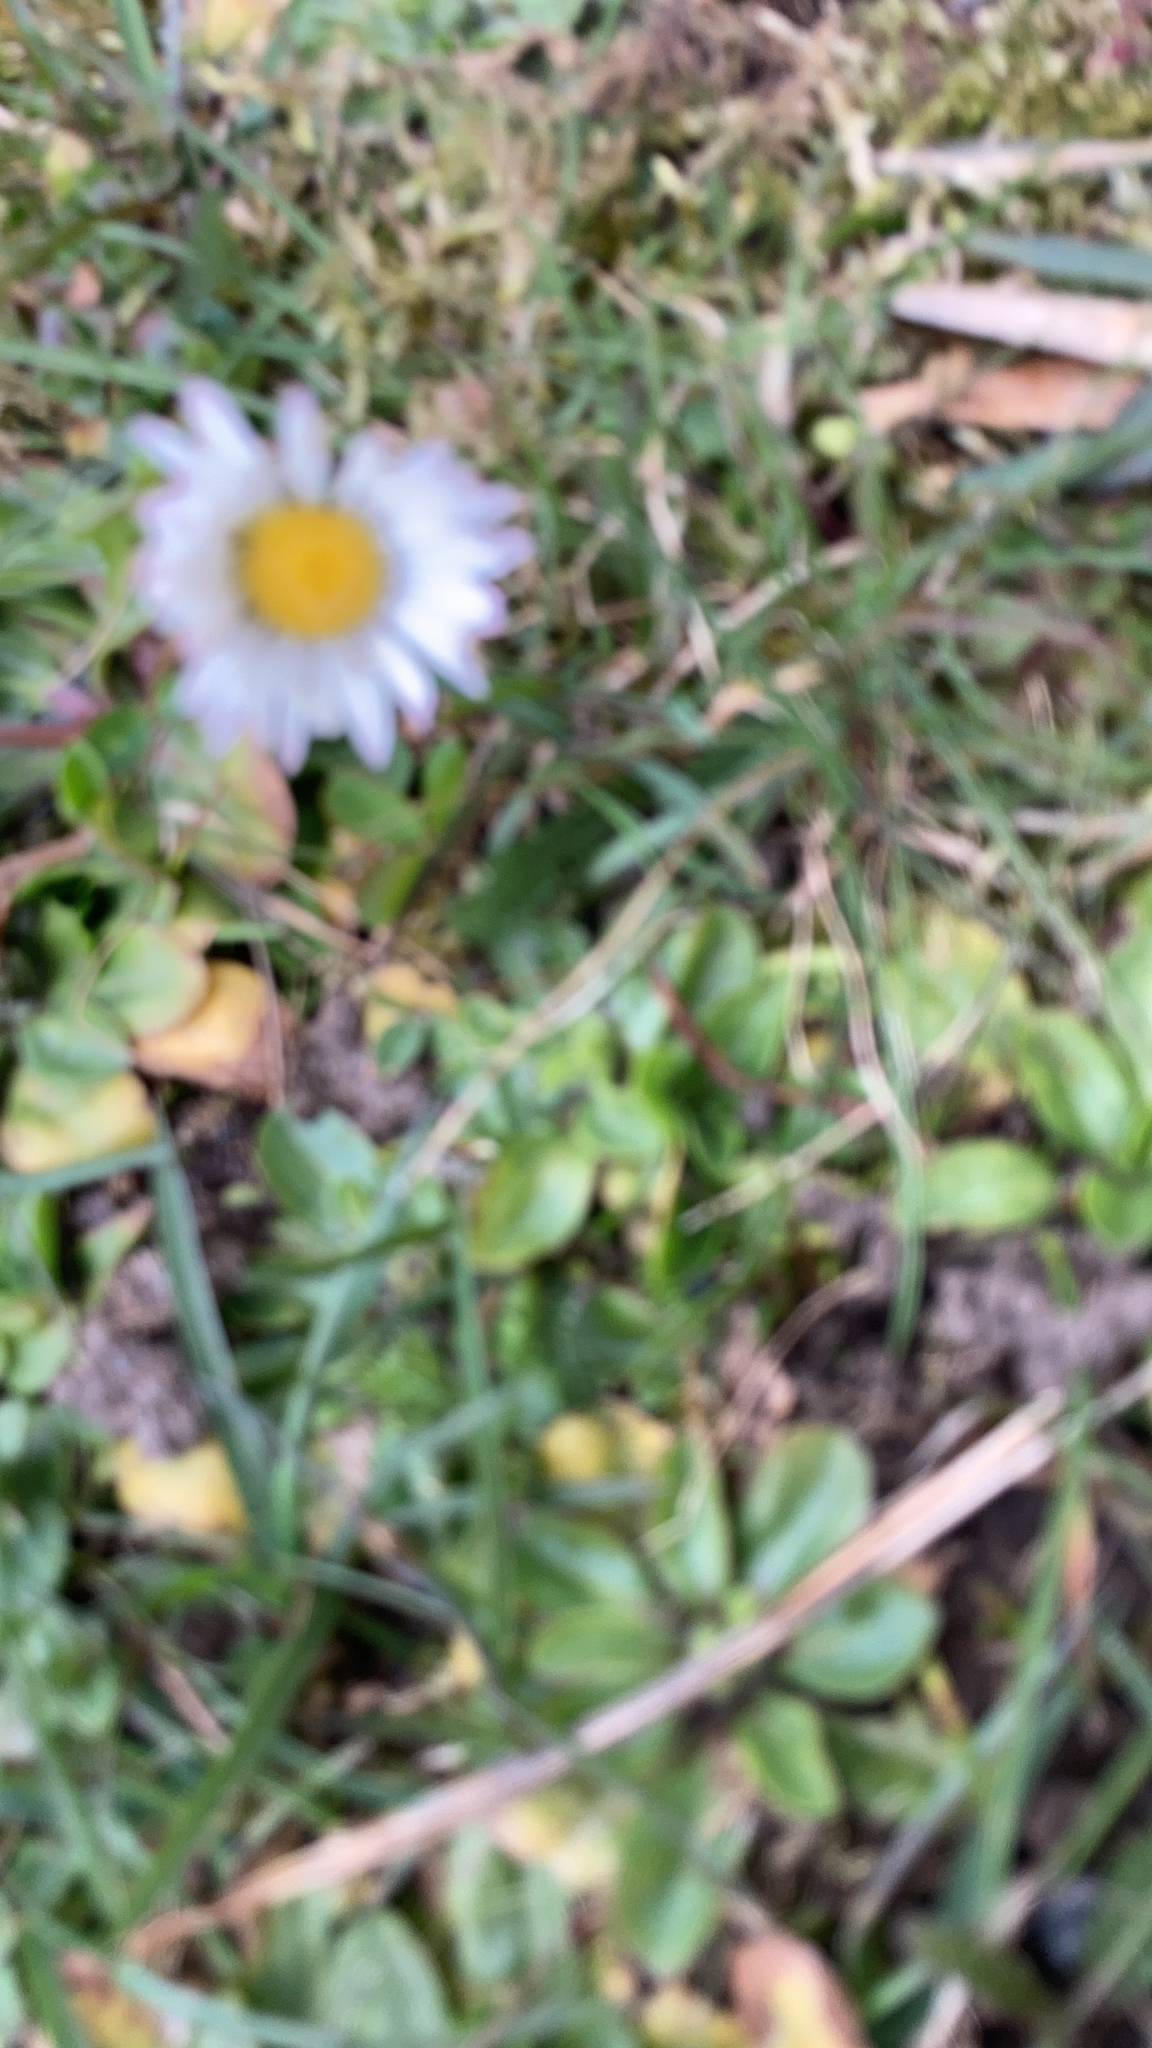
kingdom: Plantae
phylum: Tracheophyta
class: Magnoliopsida
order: Asterales
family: Asteraceae
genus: Bellis
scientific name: Bellis perennis
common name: Lawndaisy
